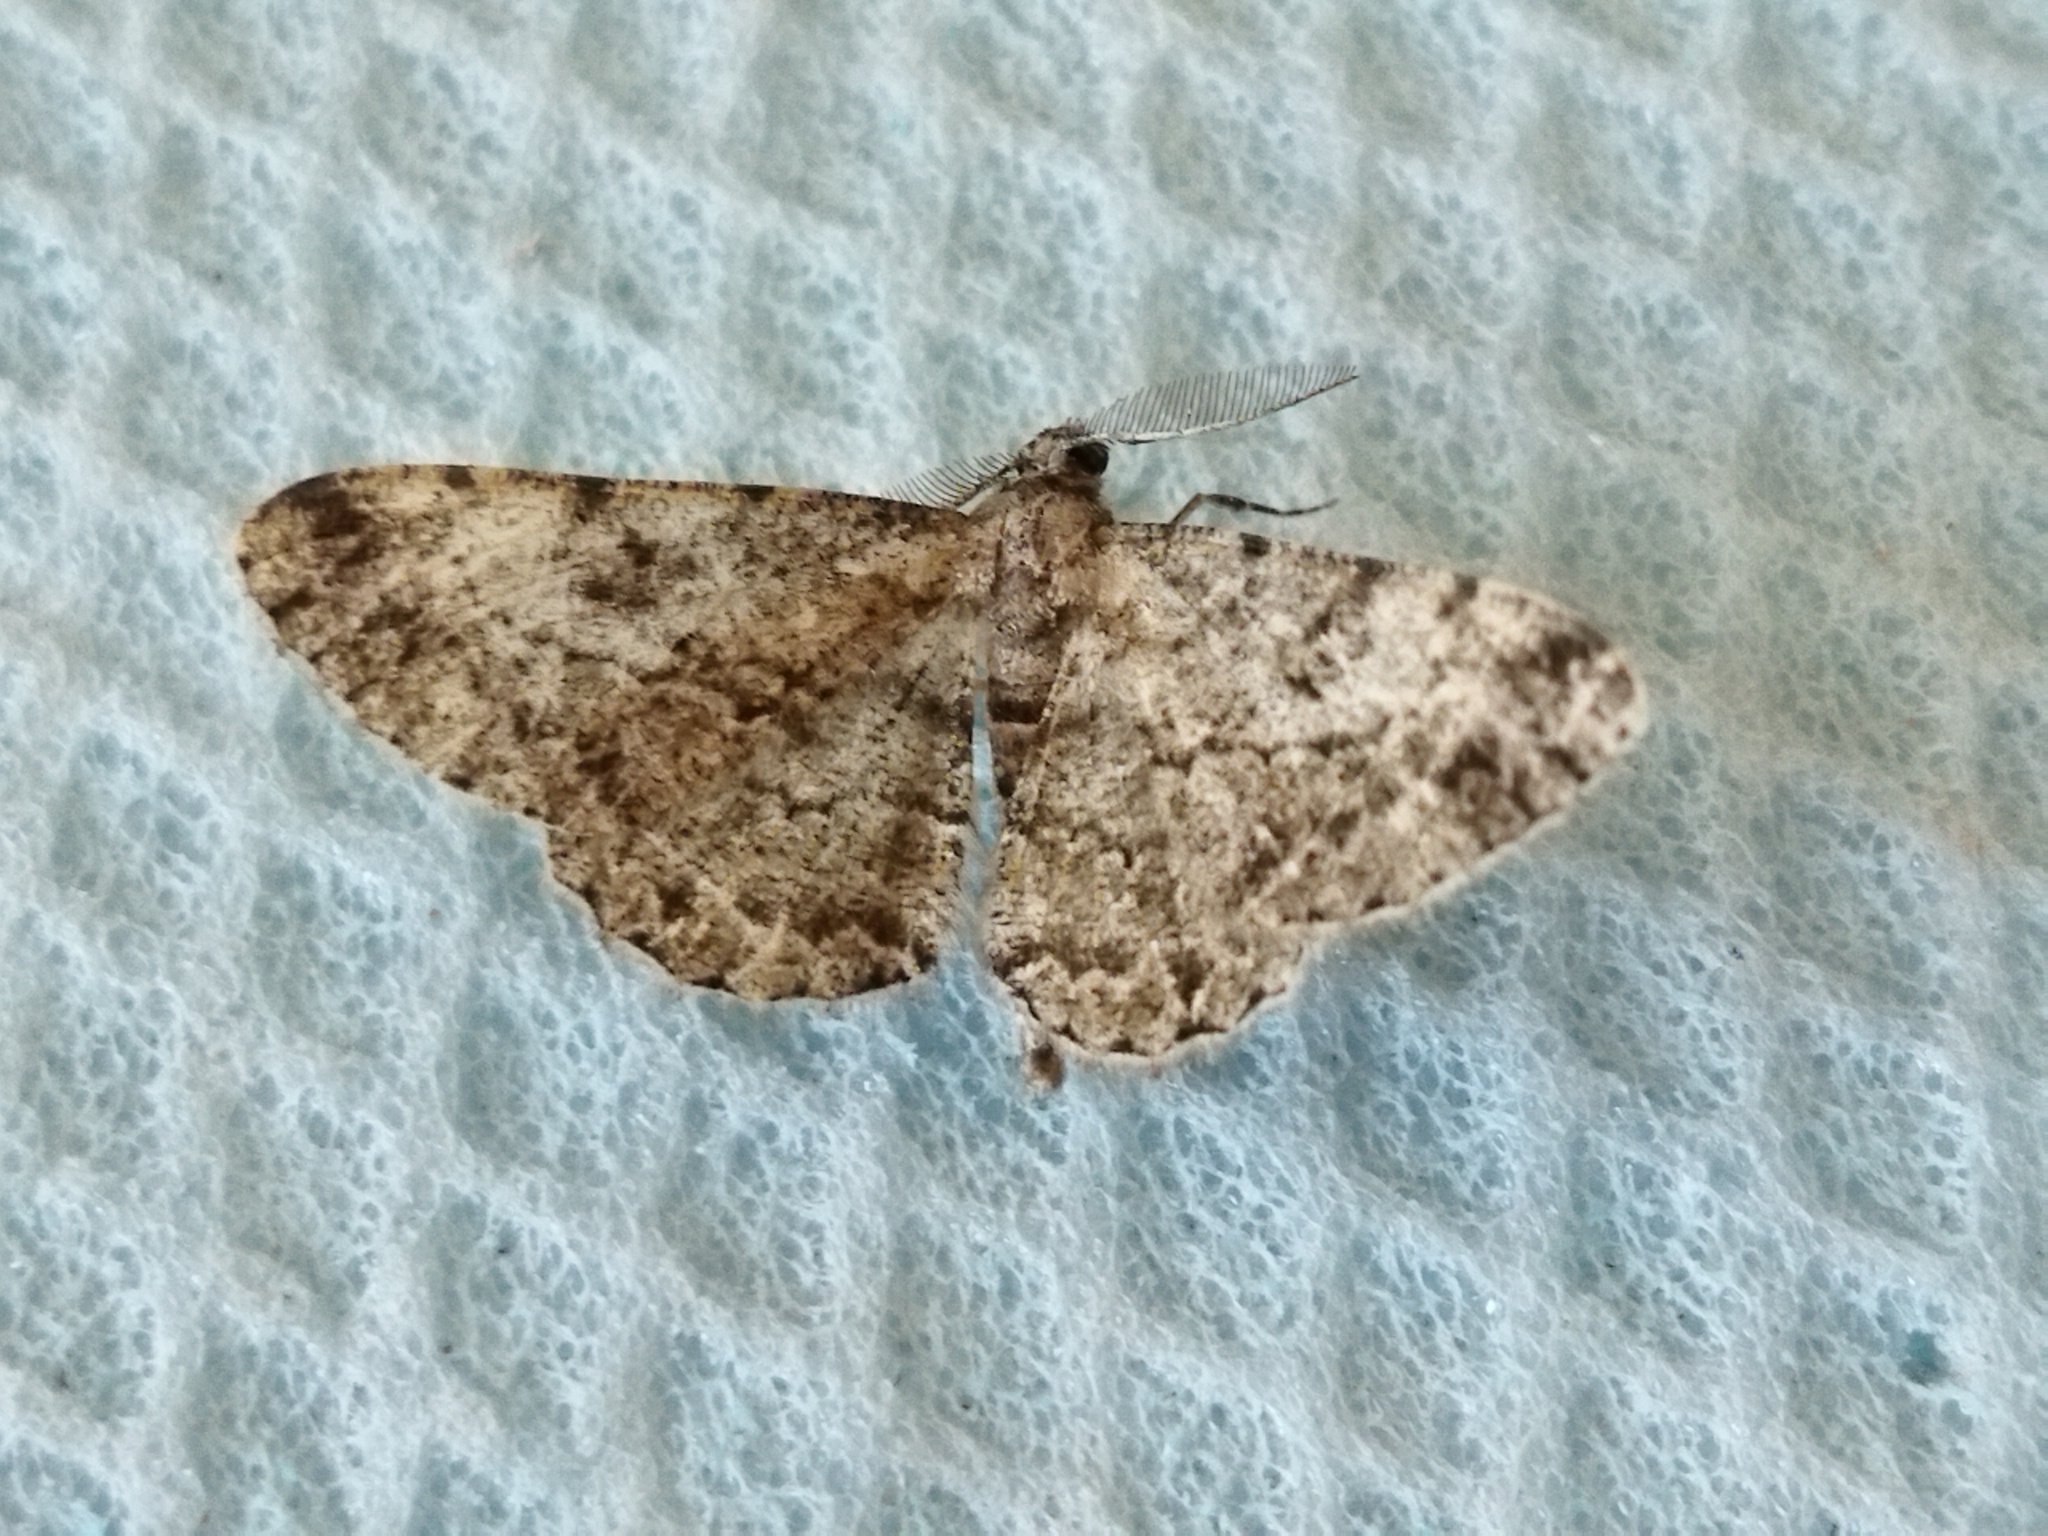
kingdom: Animalia
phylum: Arthropoda
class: Insecta
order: Lepidoptera
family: Geometridae
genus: Peribatodes
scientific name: Peribatodes rhomboidaria
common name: Willow beauty
